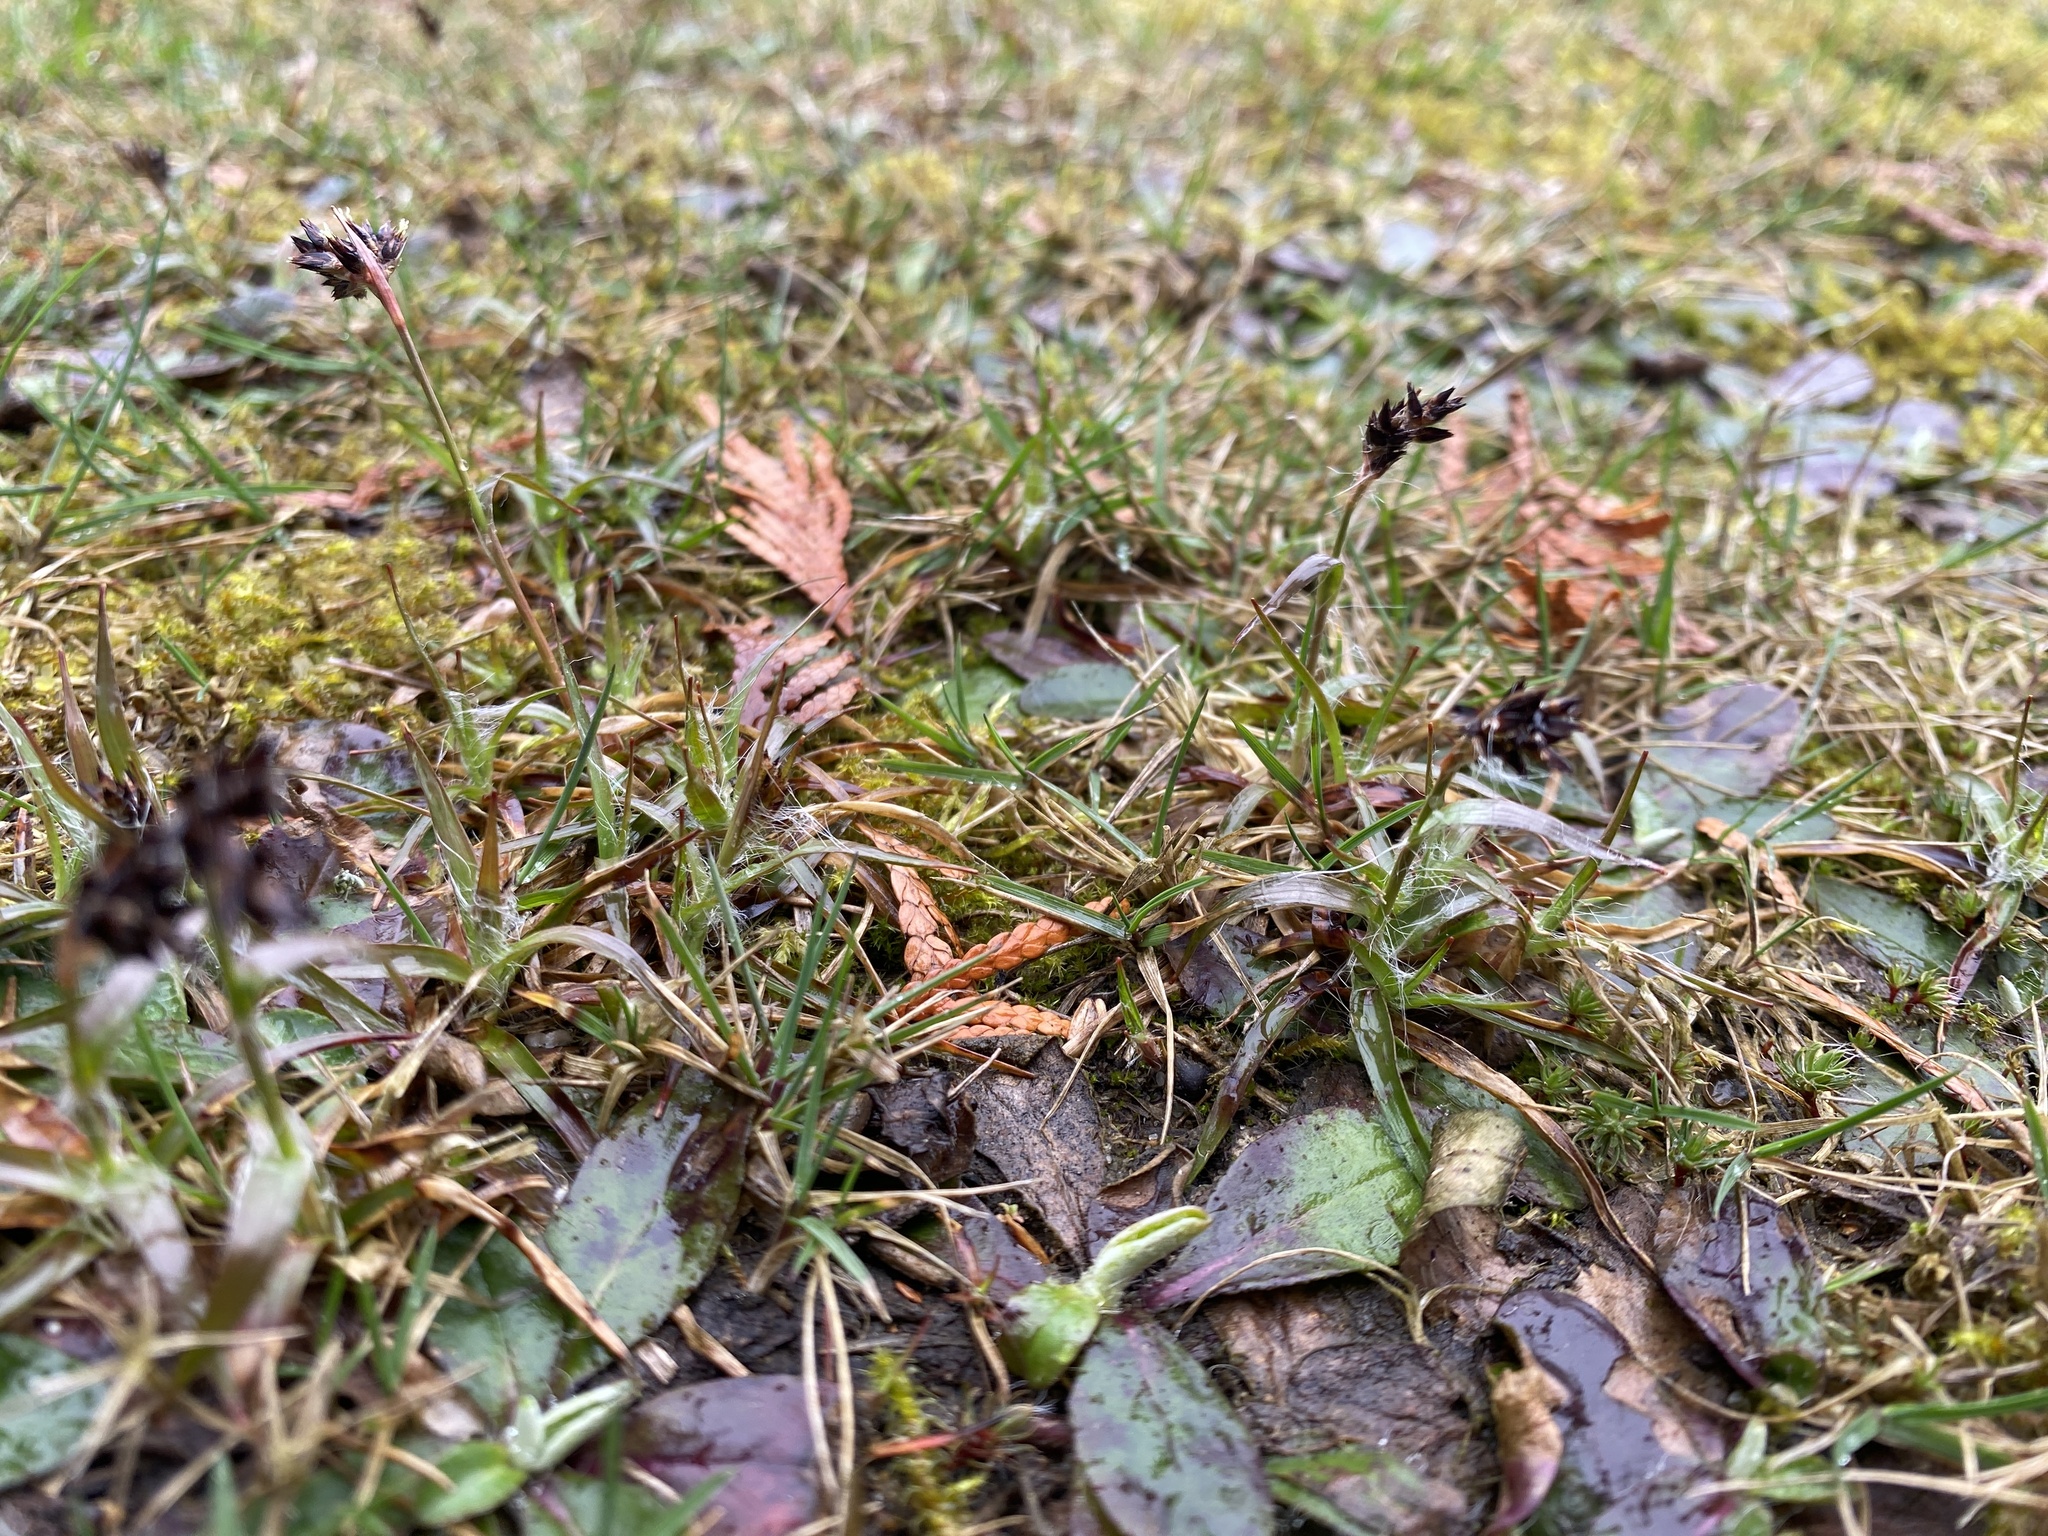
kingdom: Plantae
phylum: Tracheophyta
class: Liliopsida
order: Poales
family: Juncaceae
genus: Luzula
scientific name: Luzula campestris
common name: Field wood-rush
